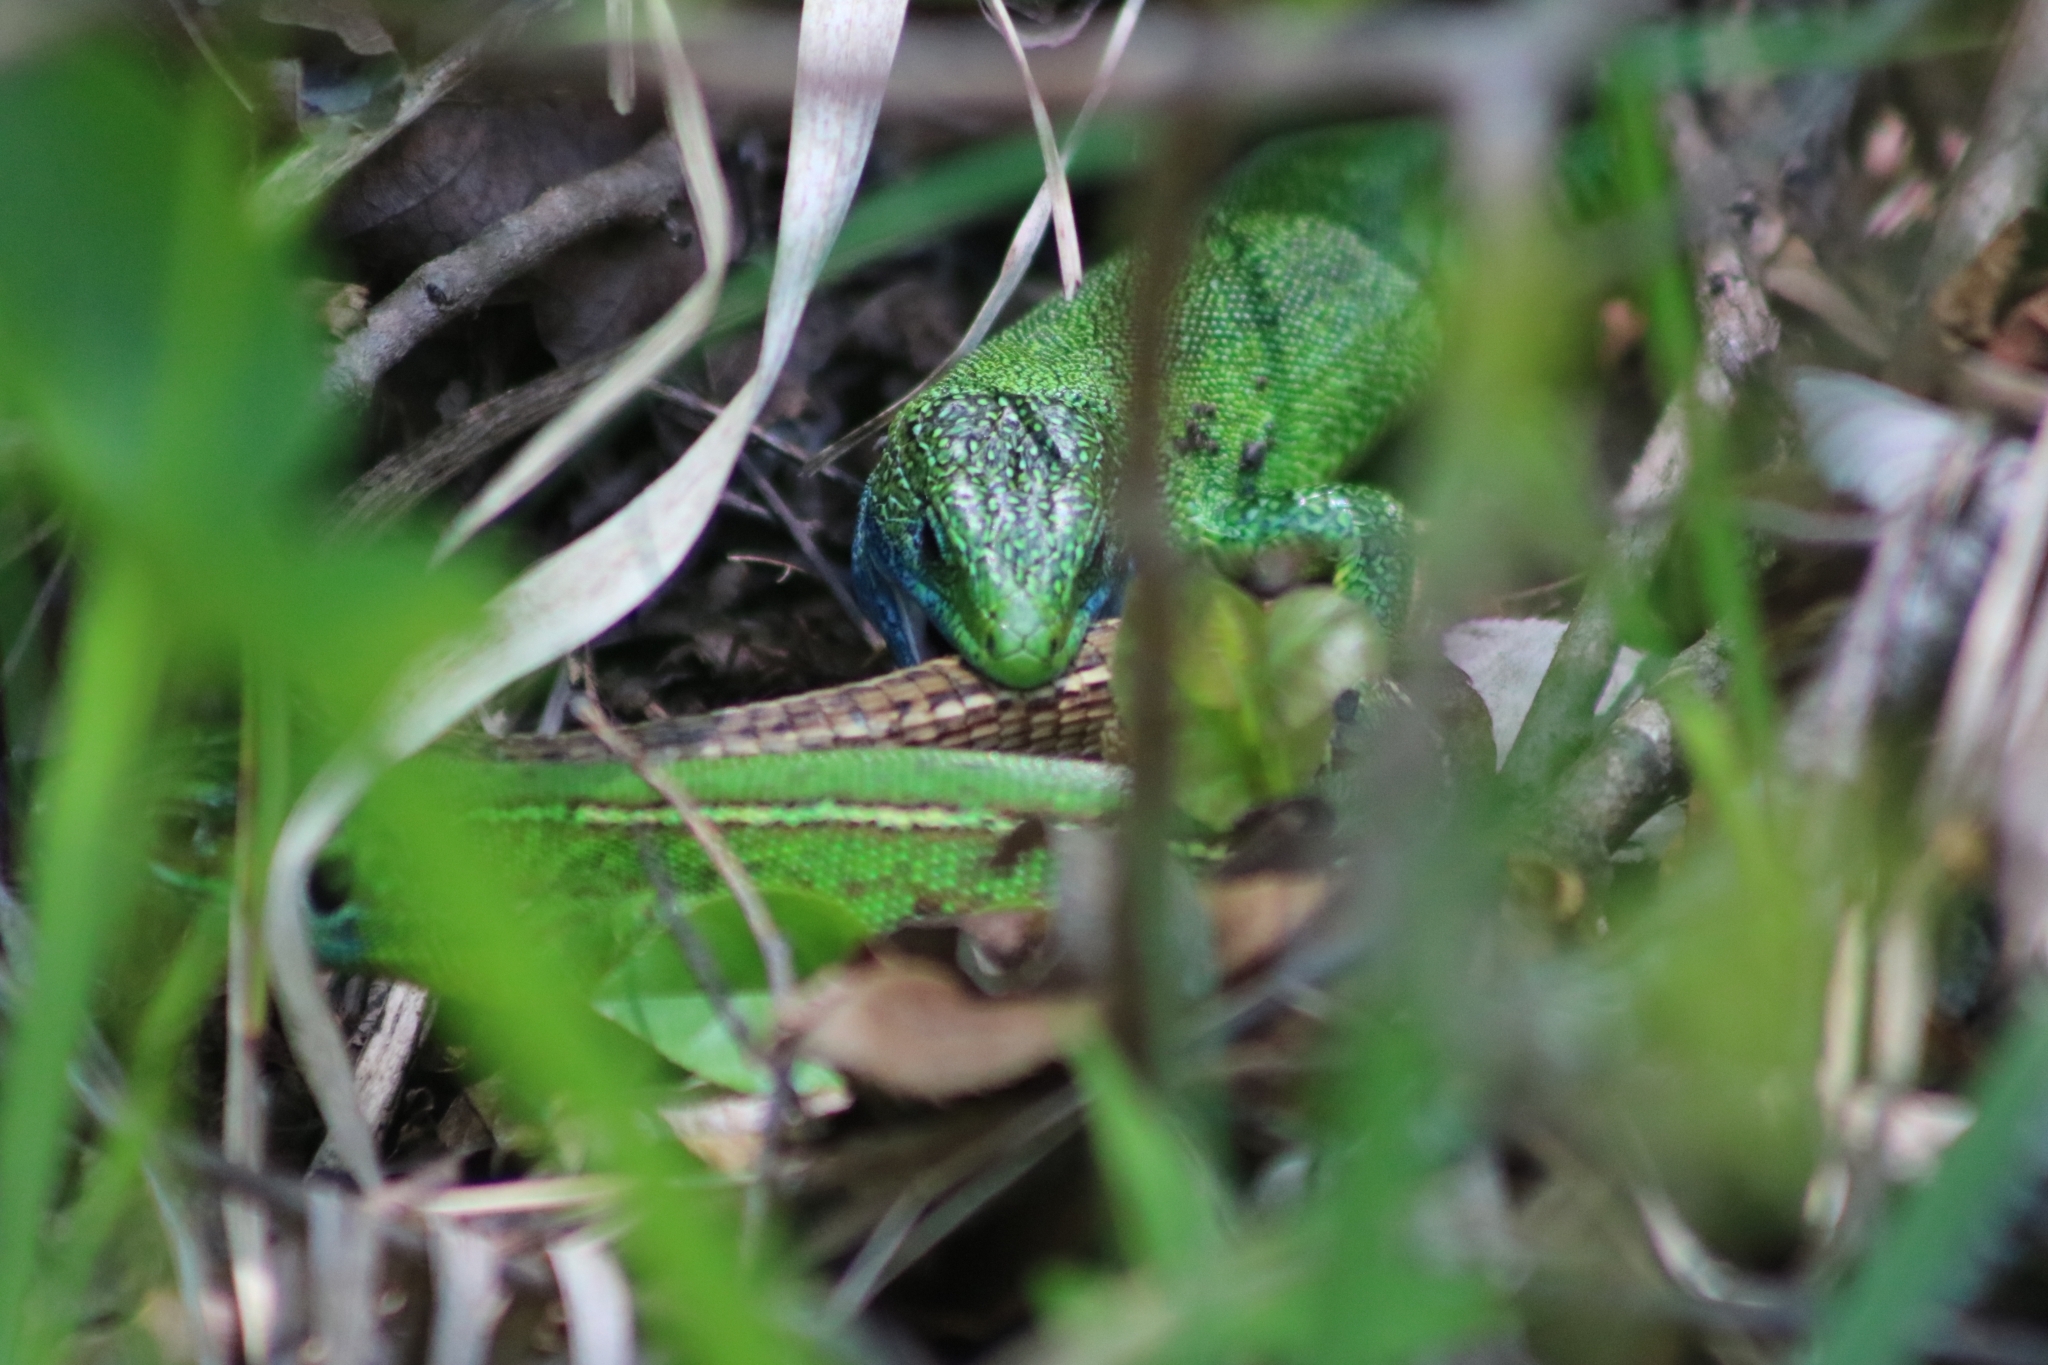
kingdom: Animalia
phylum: Chordata
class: Squamata
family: Lacertidae
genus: Lacerta
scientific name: Lacerta viridis
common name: European green lizard
